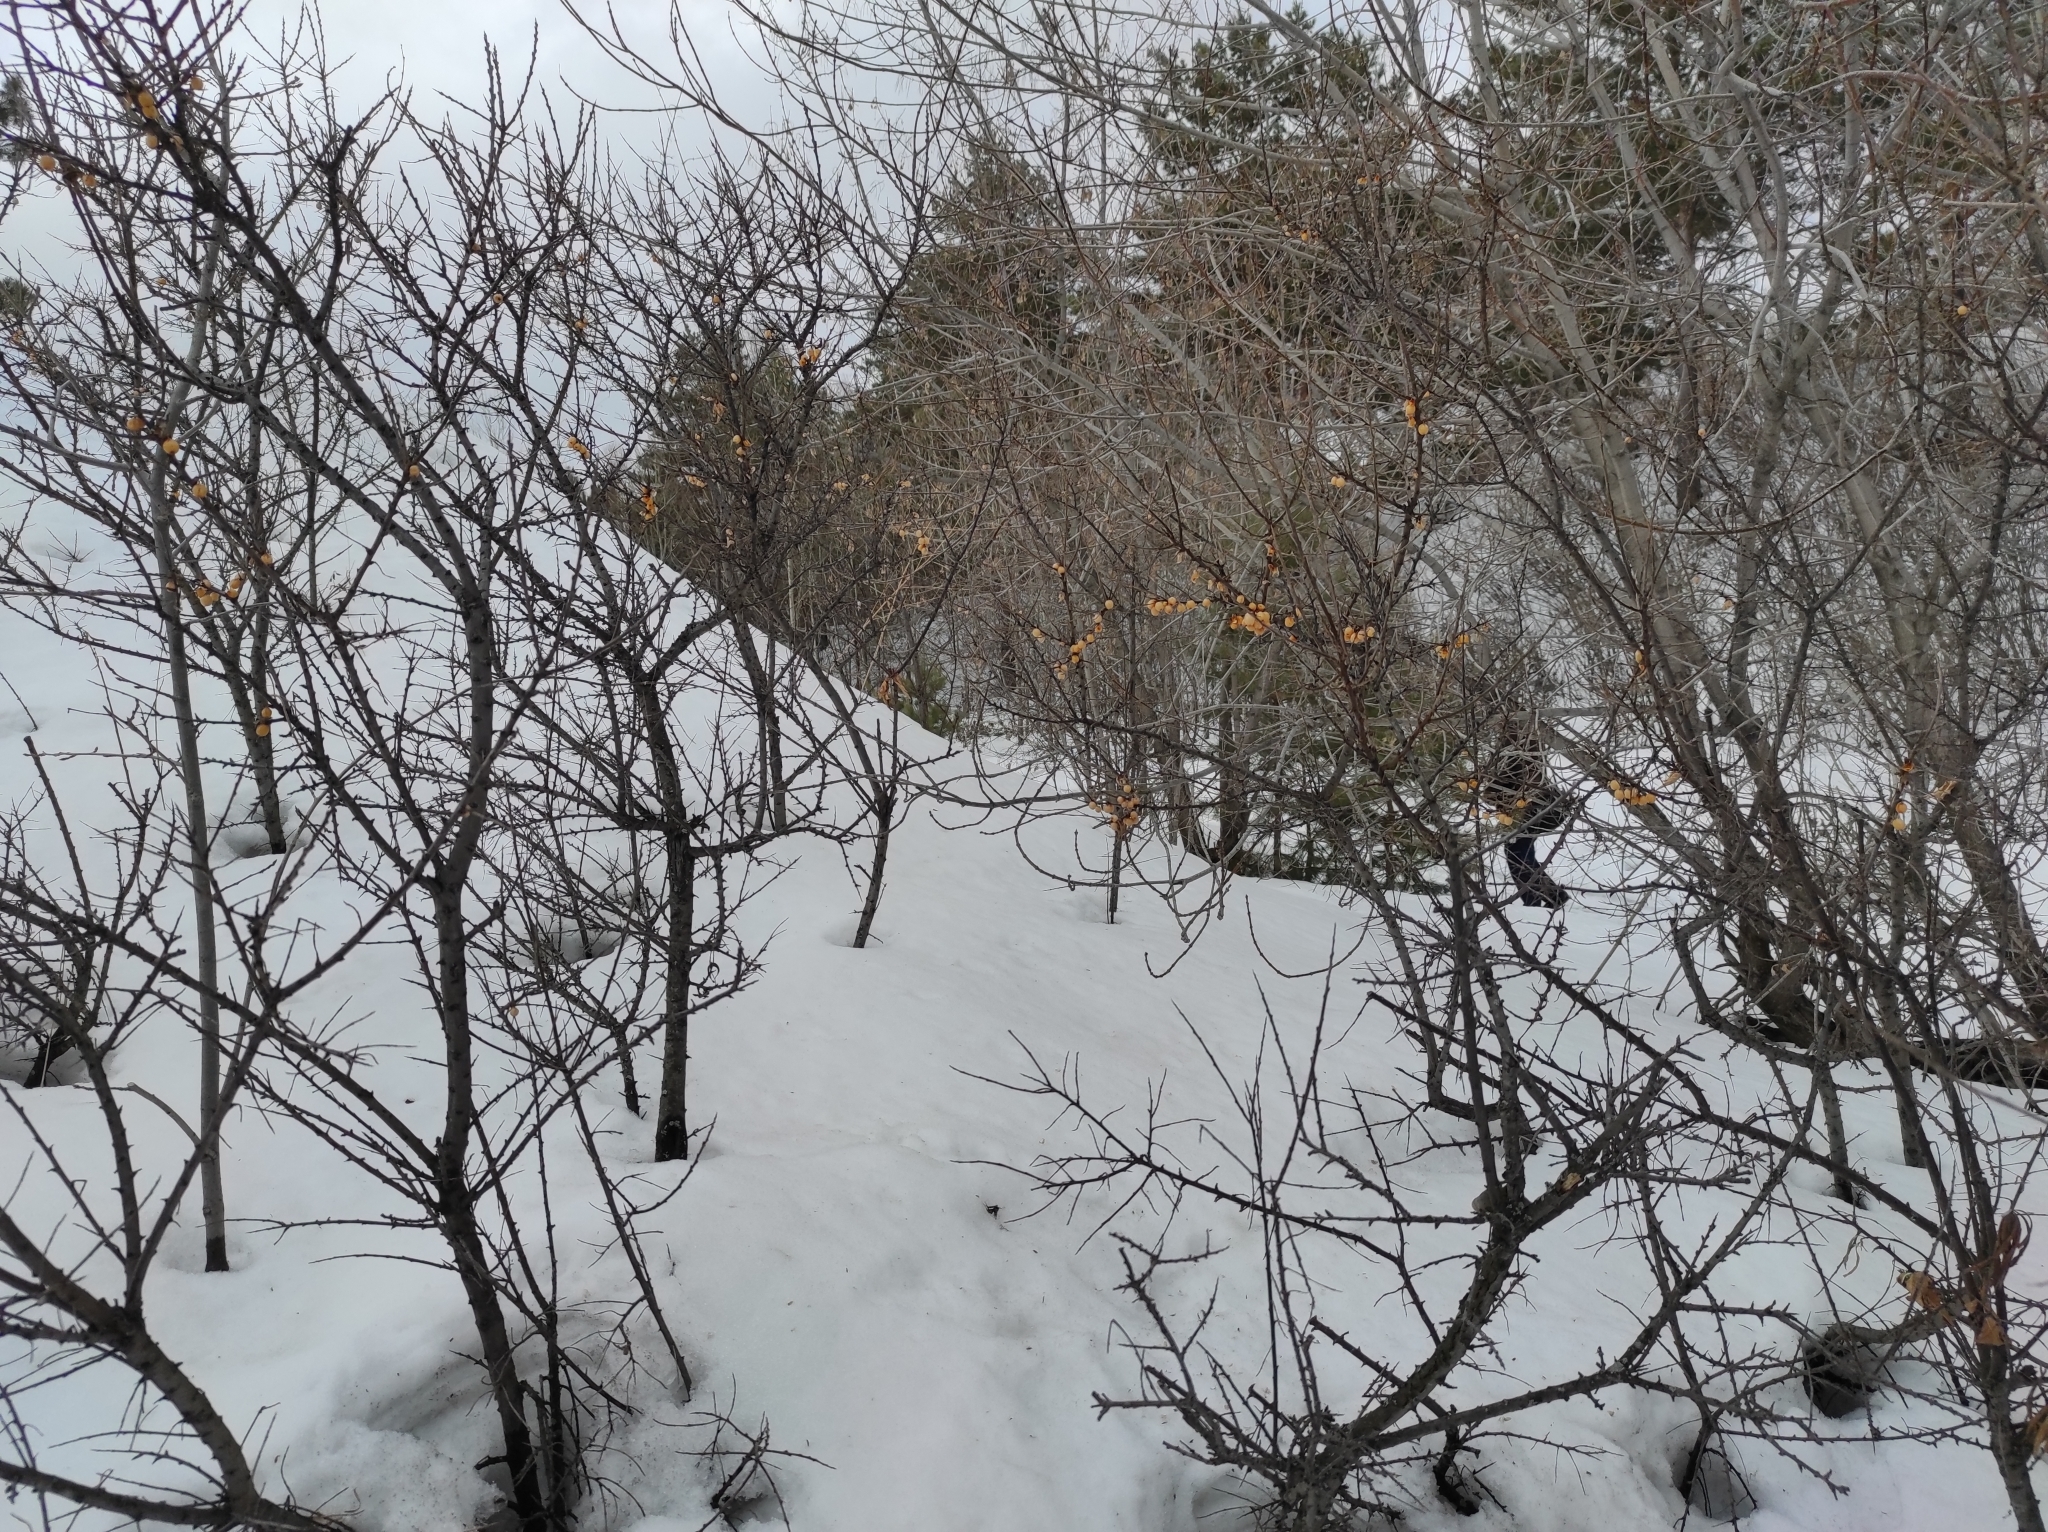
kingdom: Plantae
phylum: Tracheophyta
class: Magnoliopsida
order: Rosales
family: Elaeagnaceae
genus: Hippophae
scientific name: Hippophae rhamnoides
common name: Sea-buckthorn
